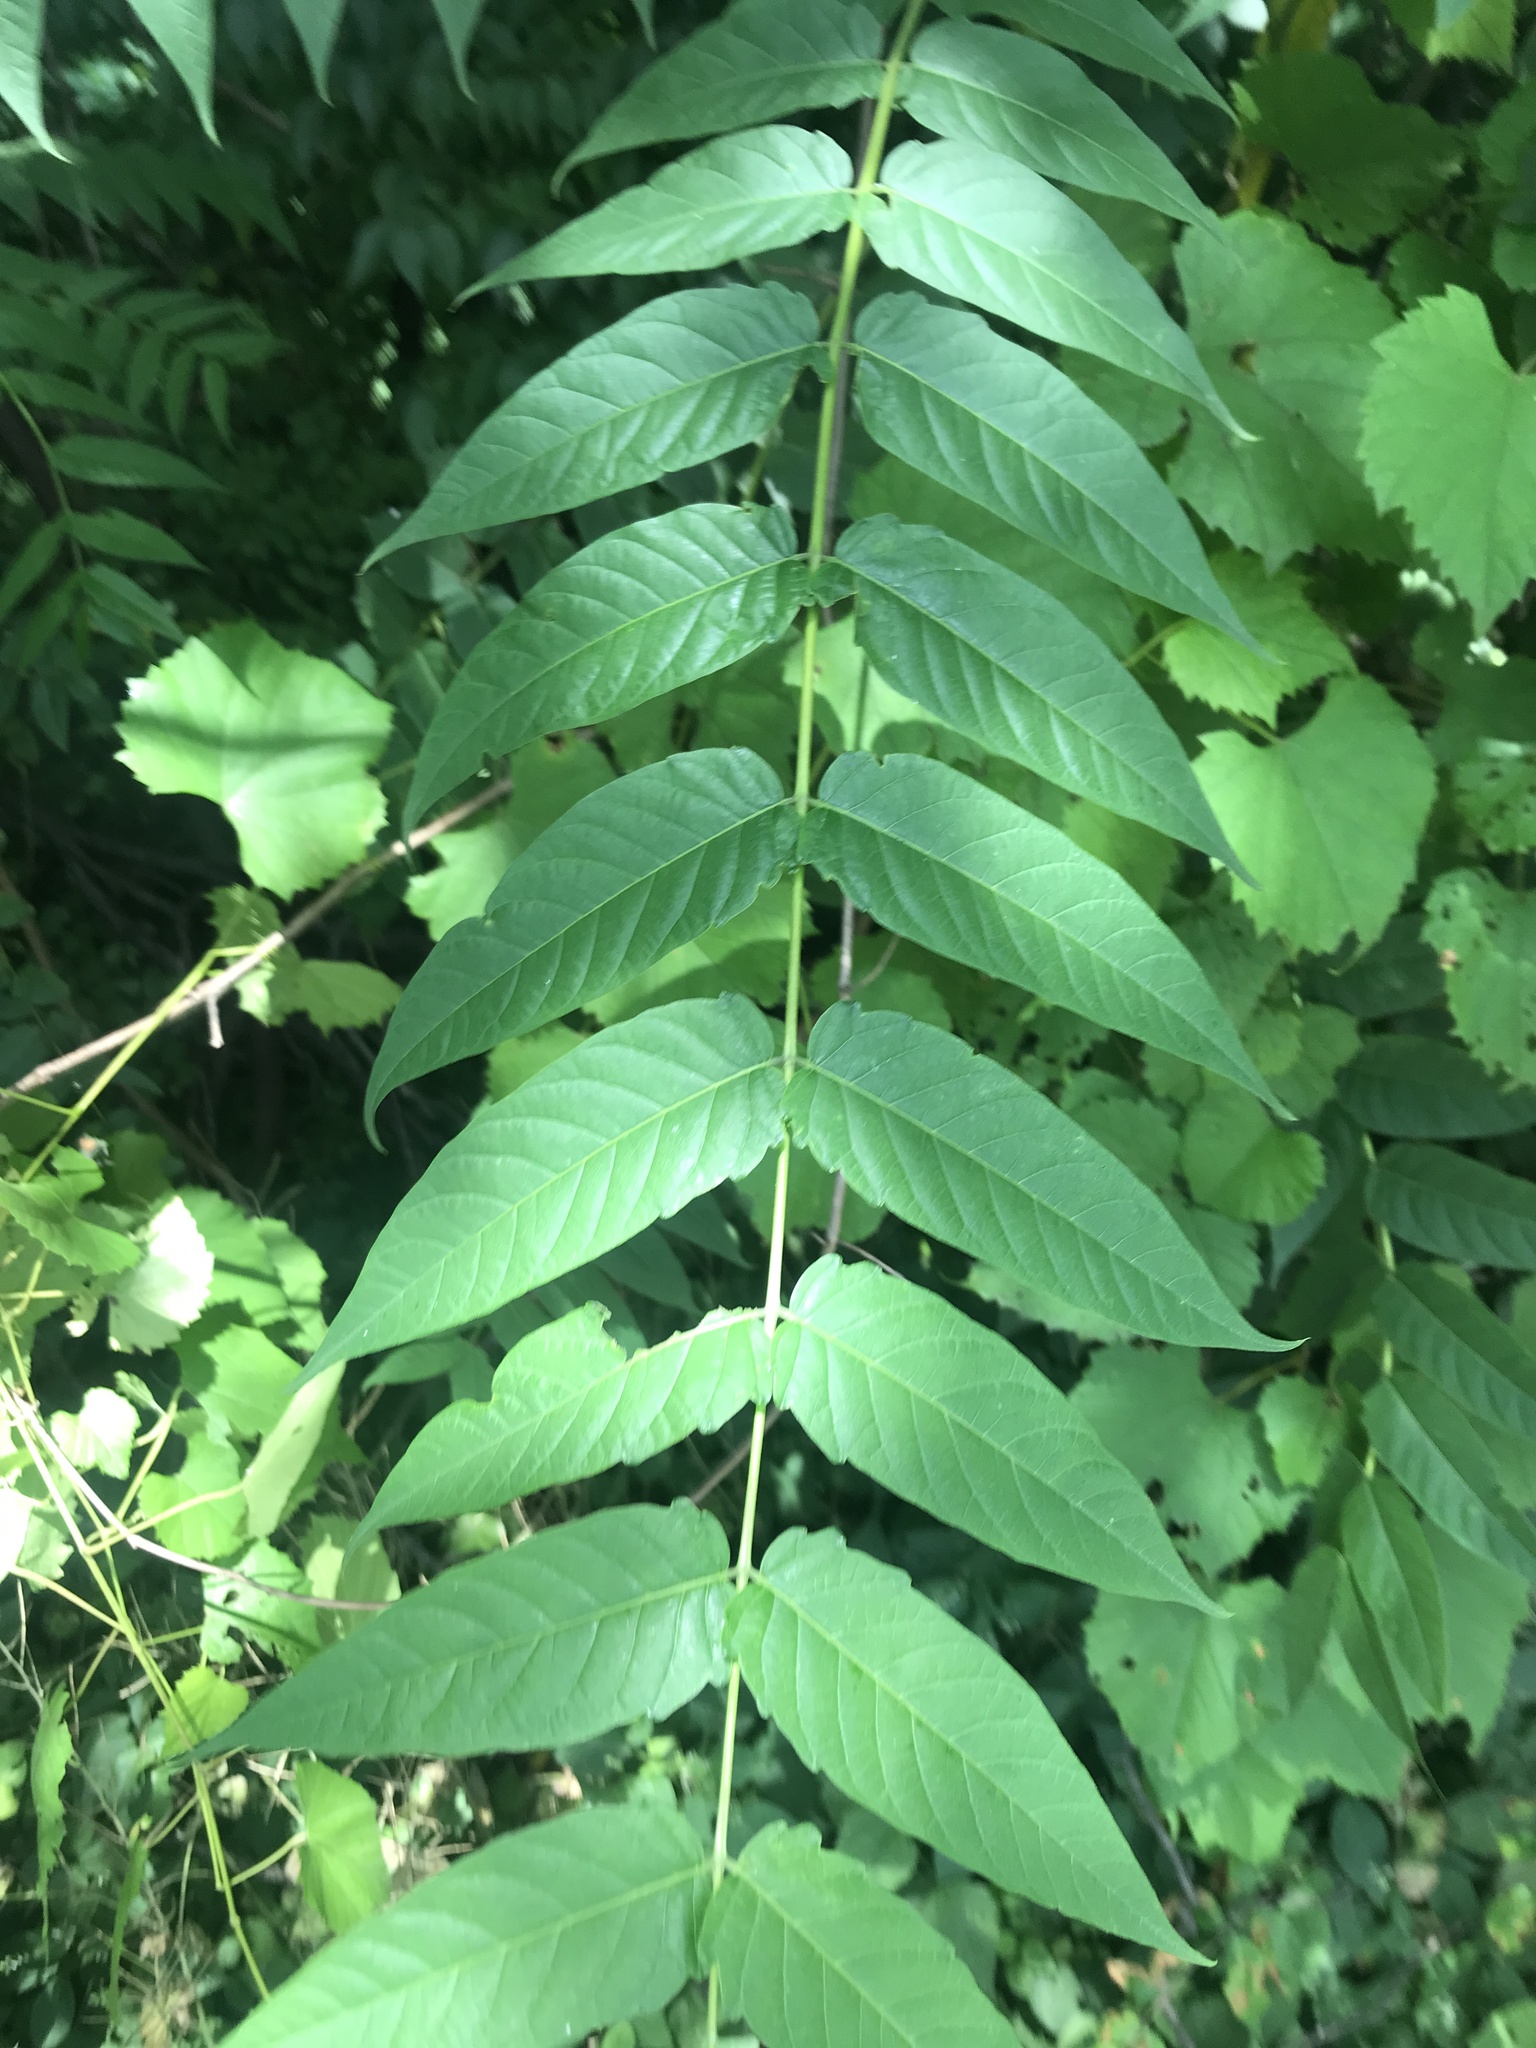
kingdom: Plantae
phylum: Tracheophyta
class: Magnoliopsida
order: Sapindales
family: Simaroubaceae
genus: Ailanthus
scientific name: Ailanthus altissima
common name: Tree-of-heaven
